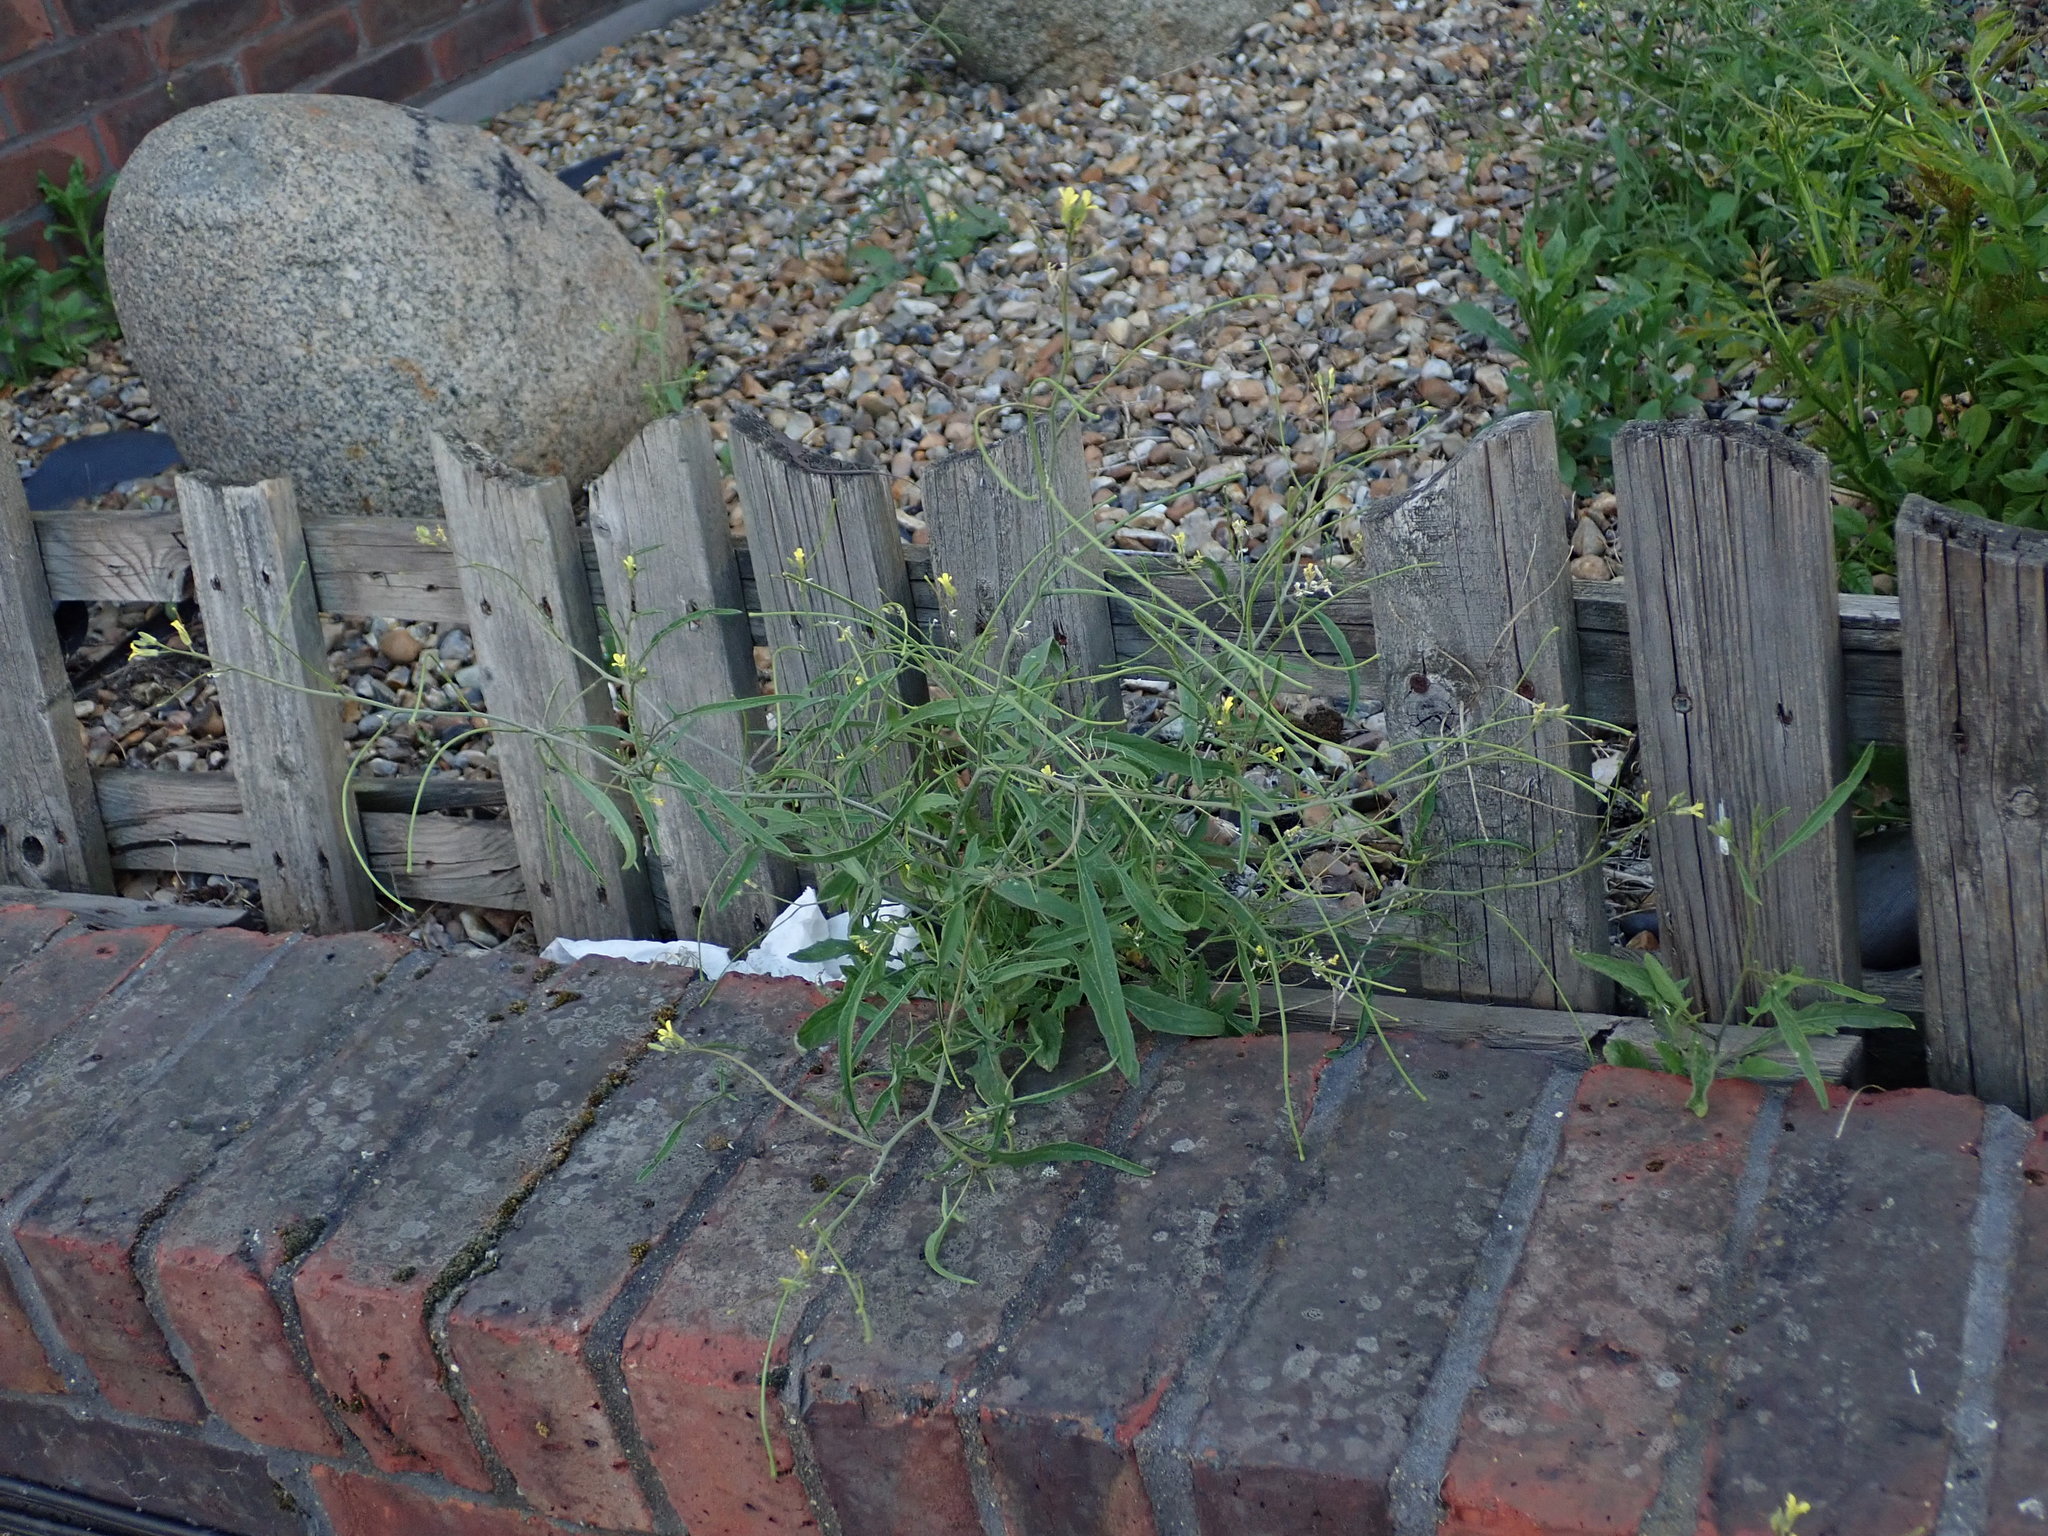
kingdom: Plantae
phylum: Tracheophyta
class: Magnoliopsida
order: Brassicales
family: Brassicaceae
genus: Sisymbrium
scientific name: Sisymbrium orientale
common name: Eastern rocket
